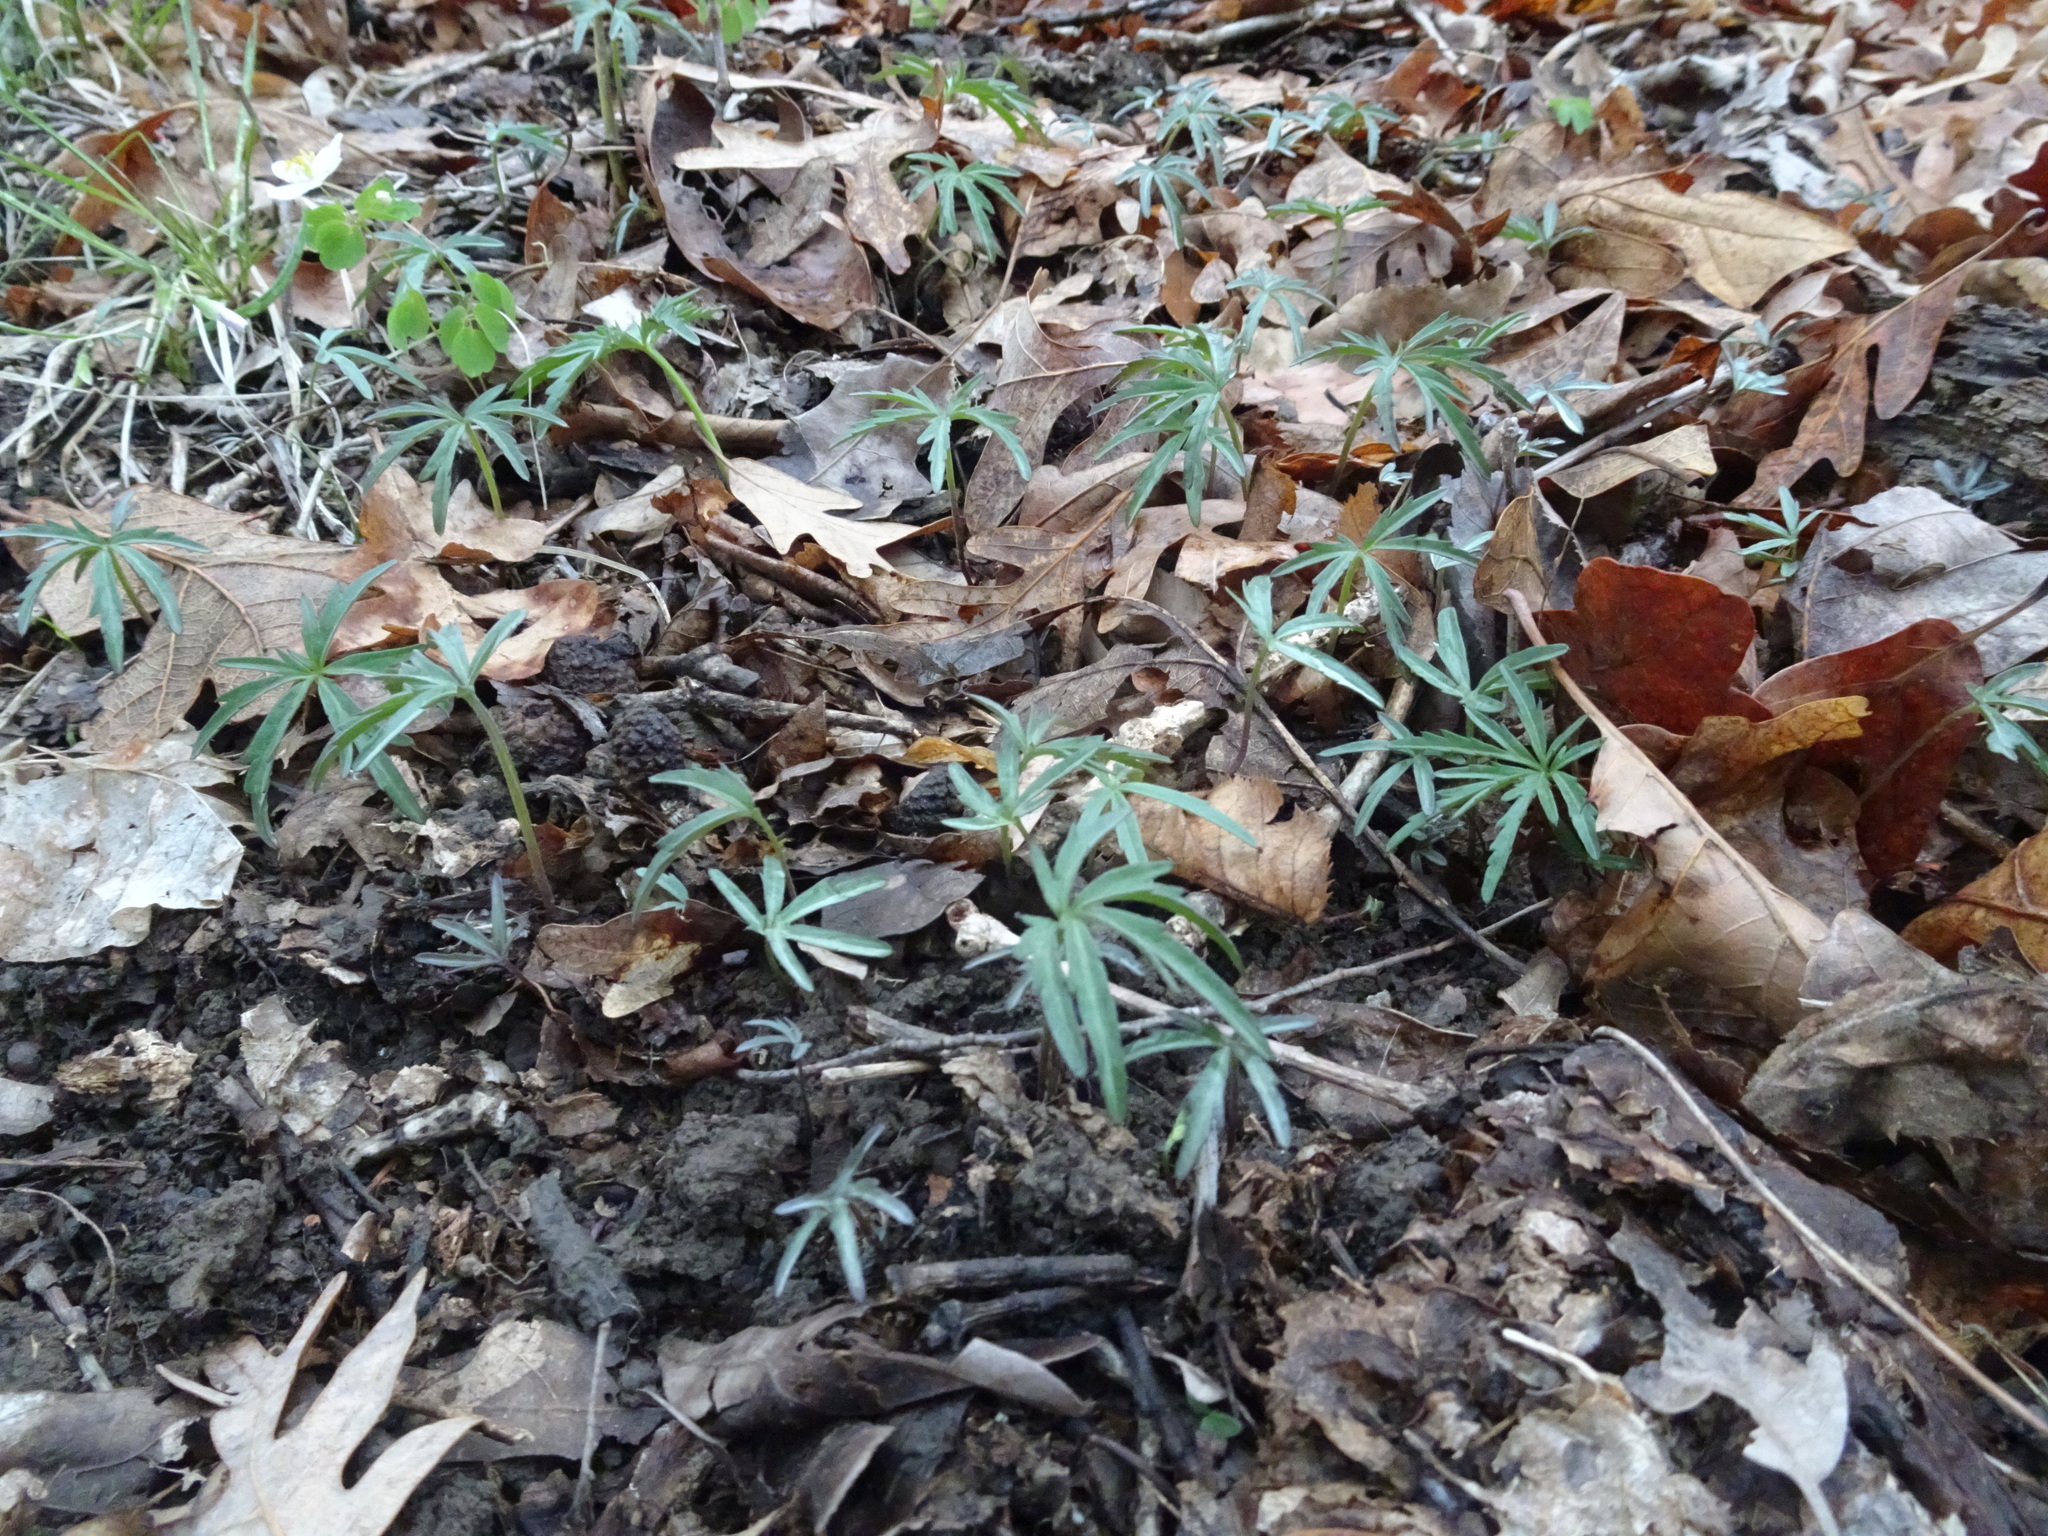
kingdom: Plantae
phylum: Tracheophyta
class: Magnoliopsida
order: Brassicales
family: Brassicaceae
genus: Cardamine
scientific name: Cardamine concatenata
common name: Cut-leaf toothcup
